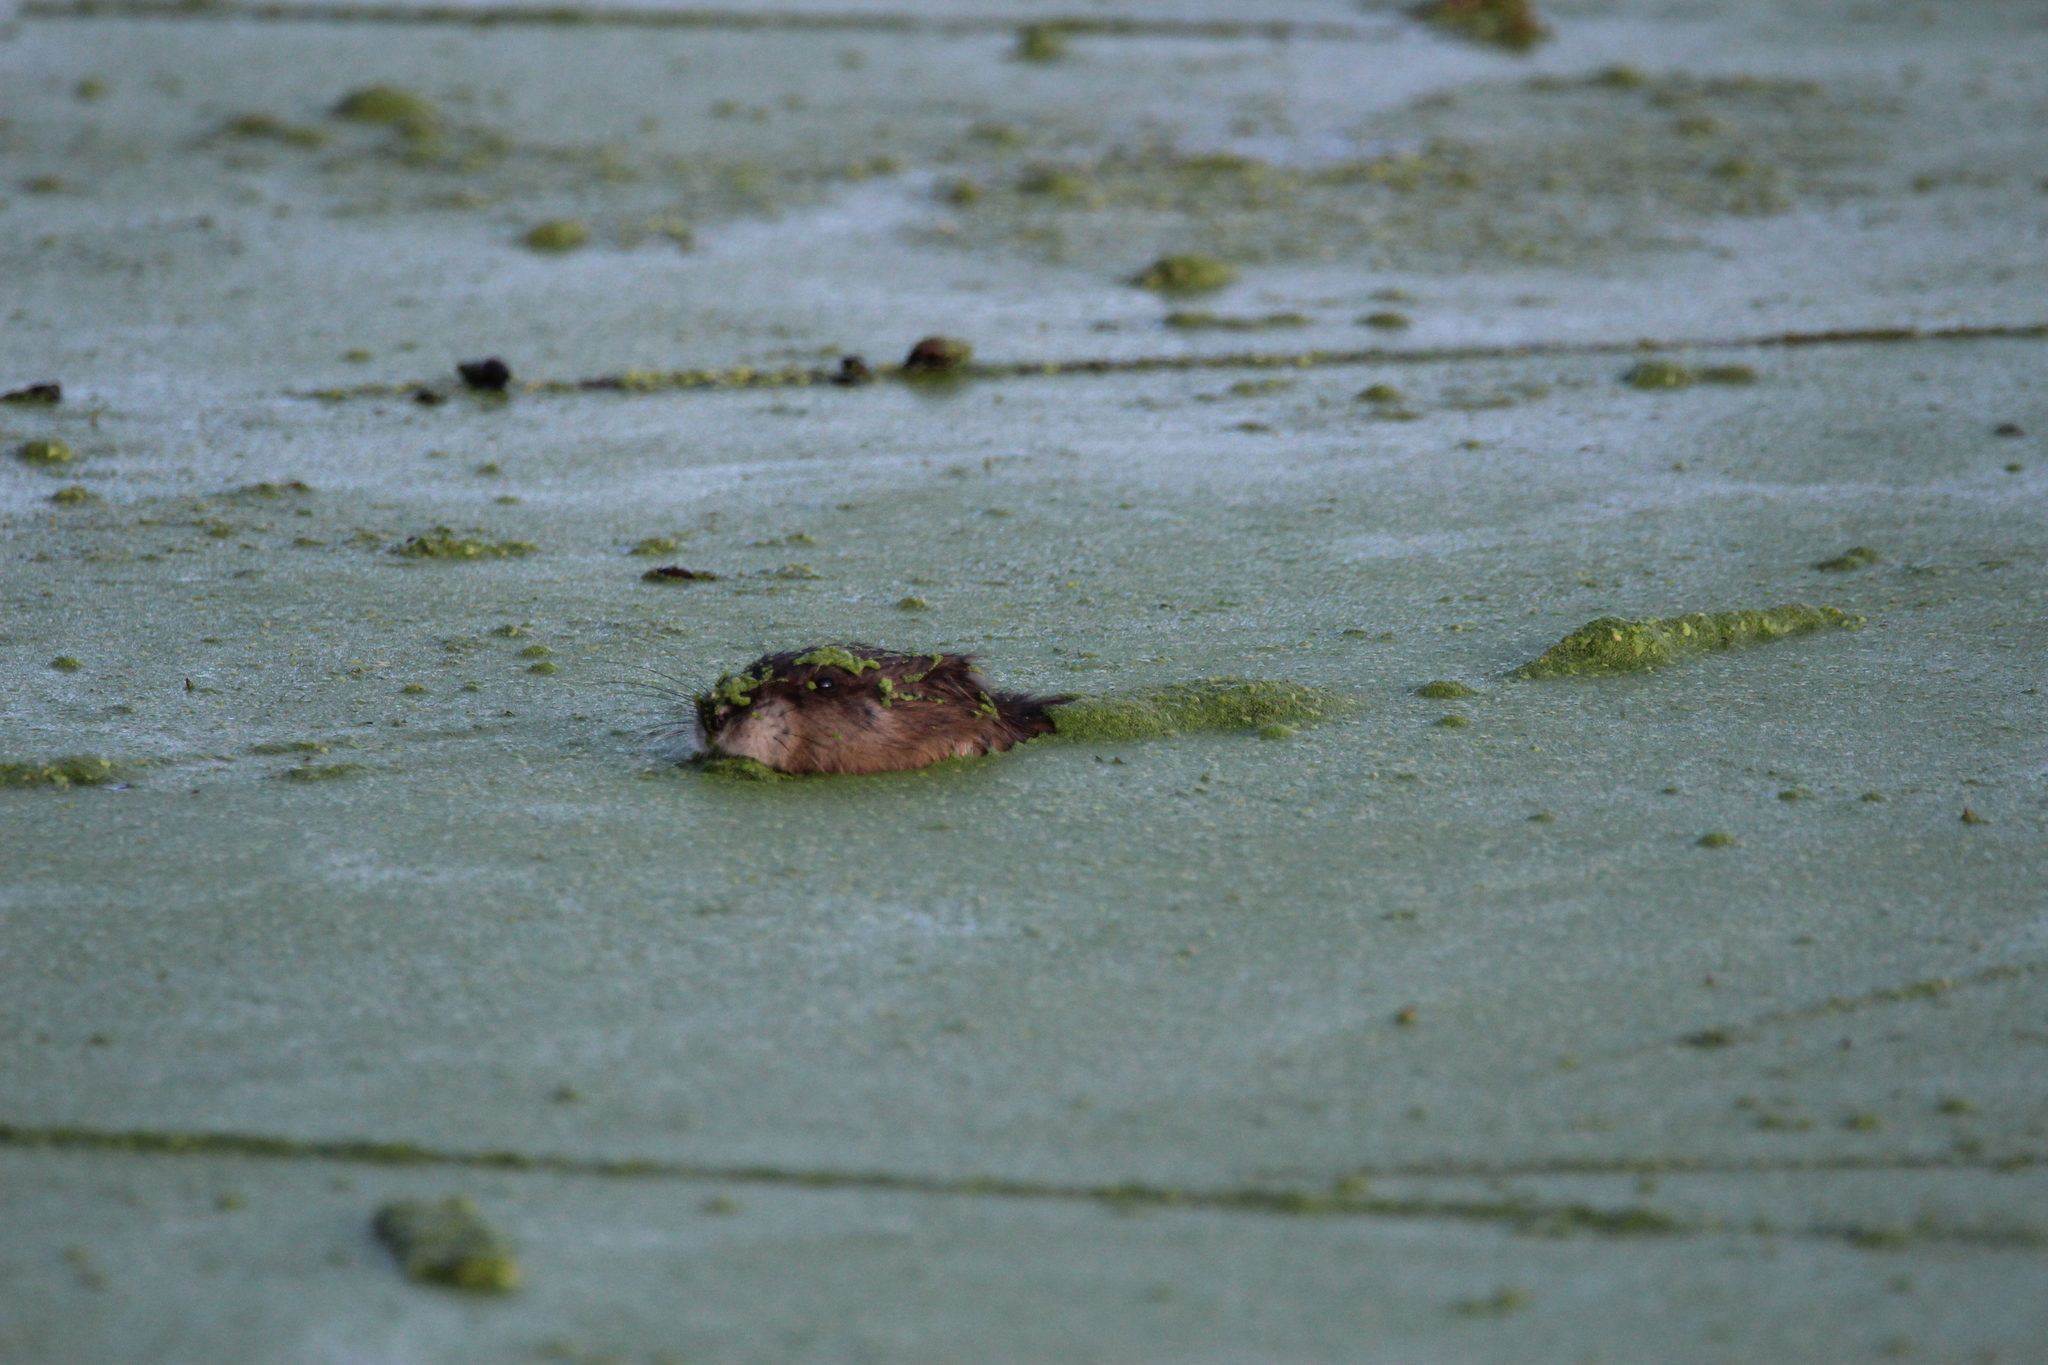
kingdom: Animalia
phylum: Chordata
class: Mammalia
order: Rodentia
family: Cricetidae
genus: Ondatra
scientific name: Ondatra zibethicus
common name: Muskrat
